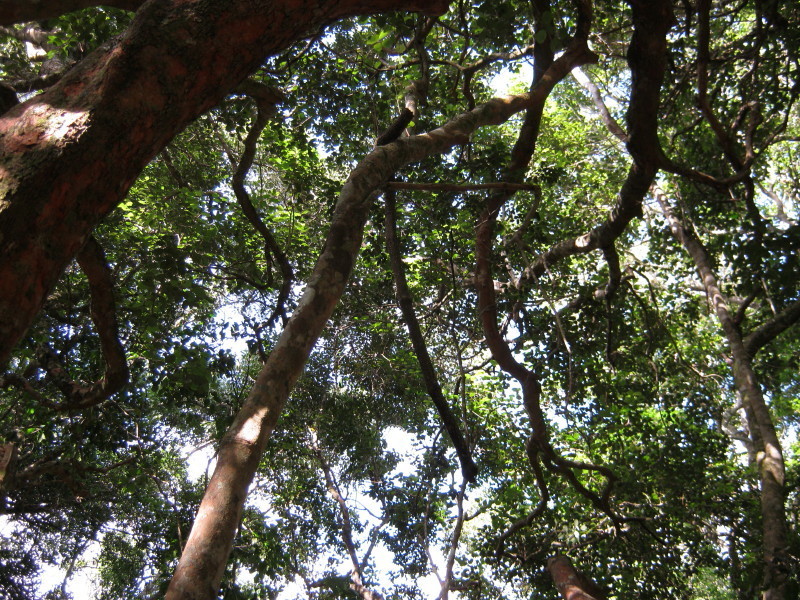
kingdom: Plantae
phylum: Tracheophyta
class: Magnoliopsida
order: Celastrales
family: Celastraceae
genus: Cassine
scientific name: Cassine peragua
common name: Cape saffron
